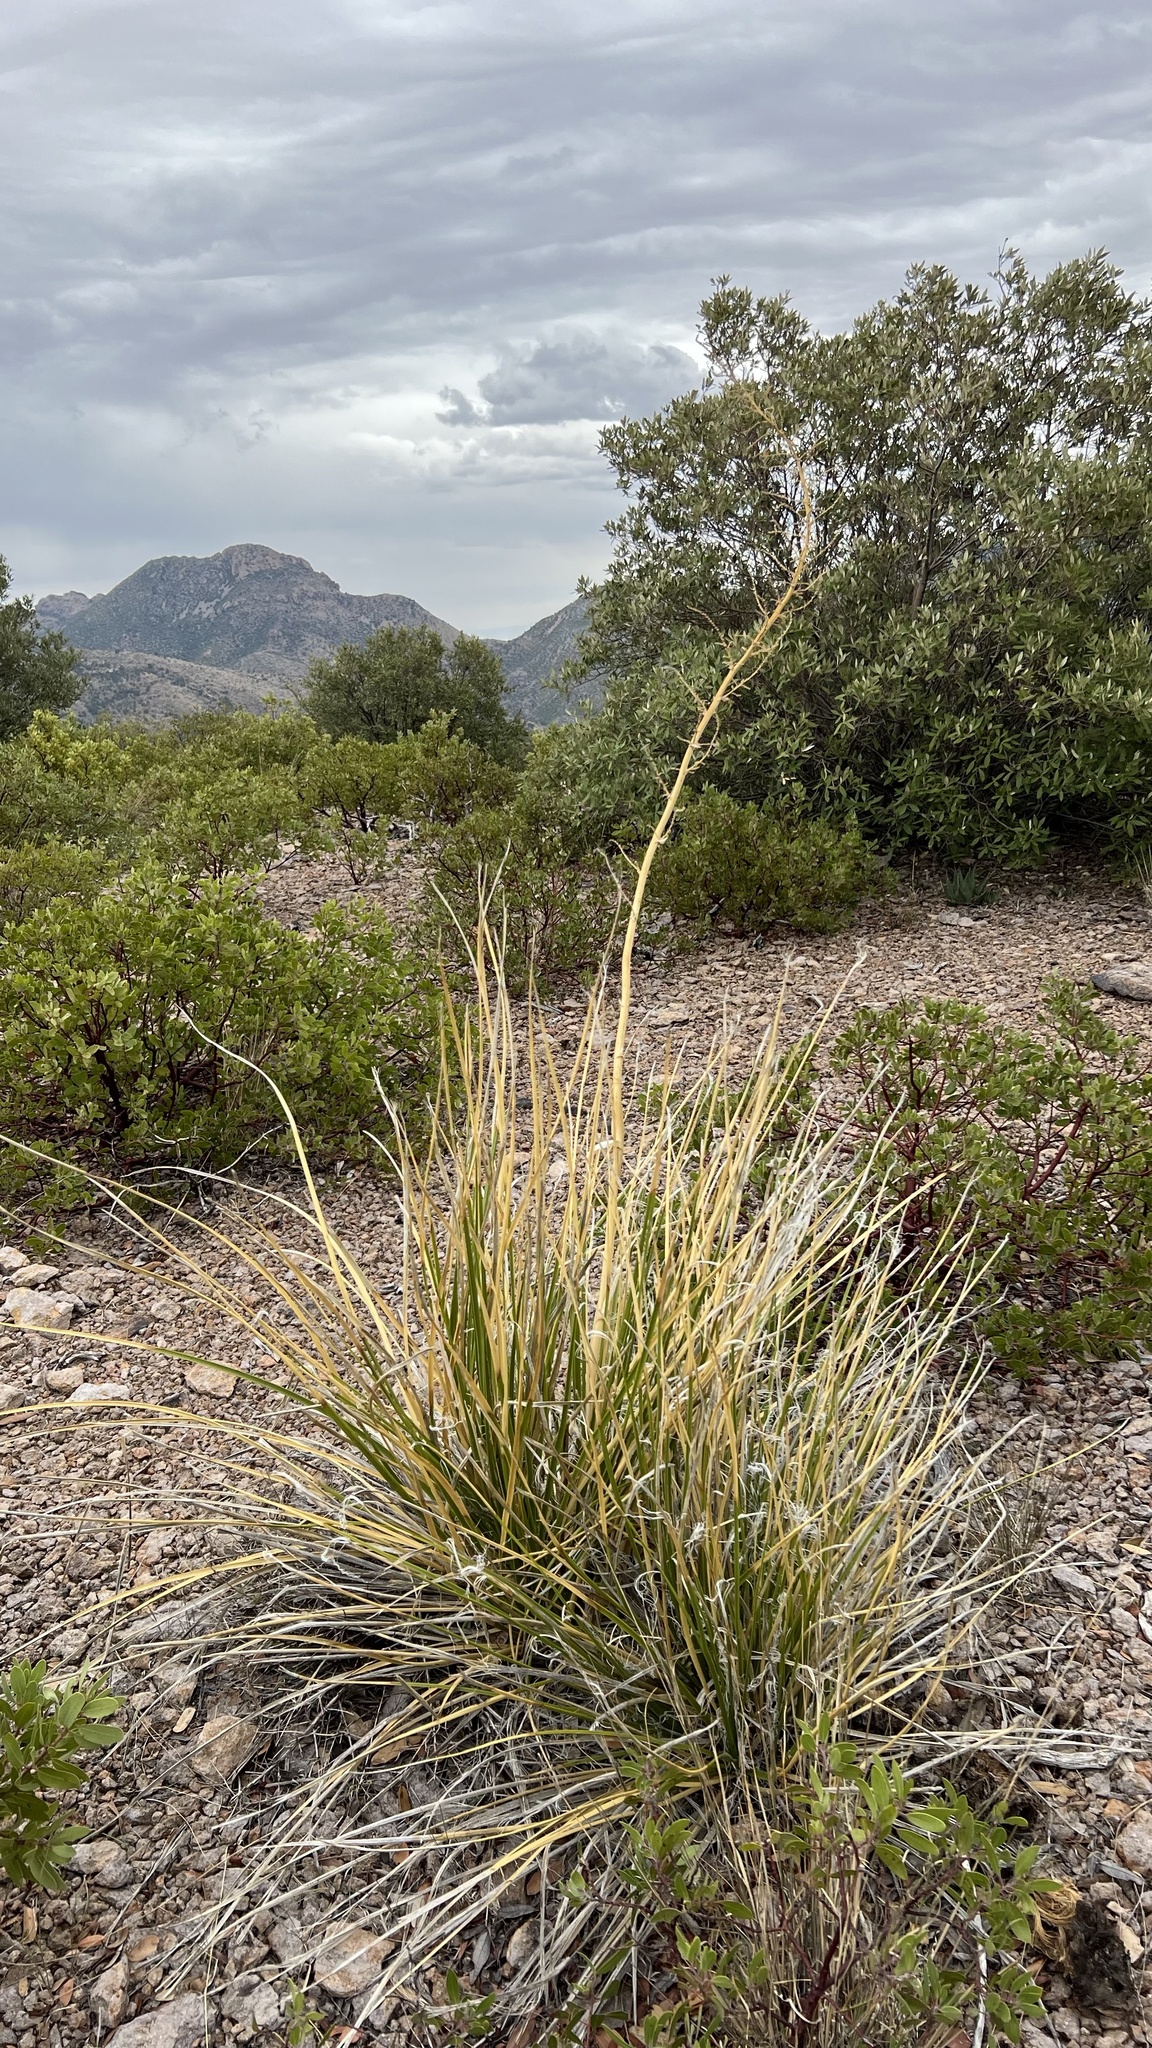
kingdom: Plantae
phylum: Tracheophyta
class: Liliopsida
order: Asparagales
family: Asparagaceae
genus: Nolina
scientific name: Nolina microcarpa
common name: Bear-grass
